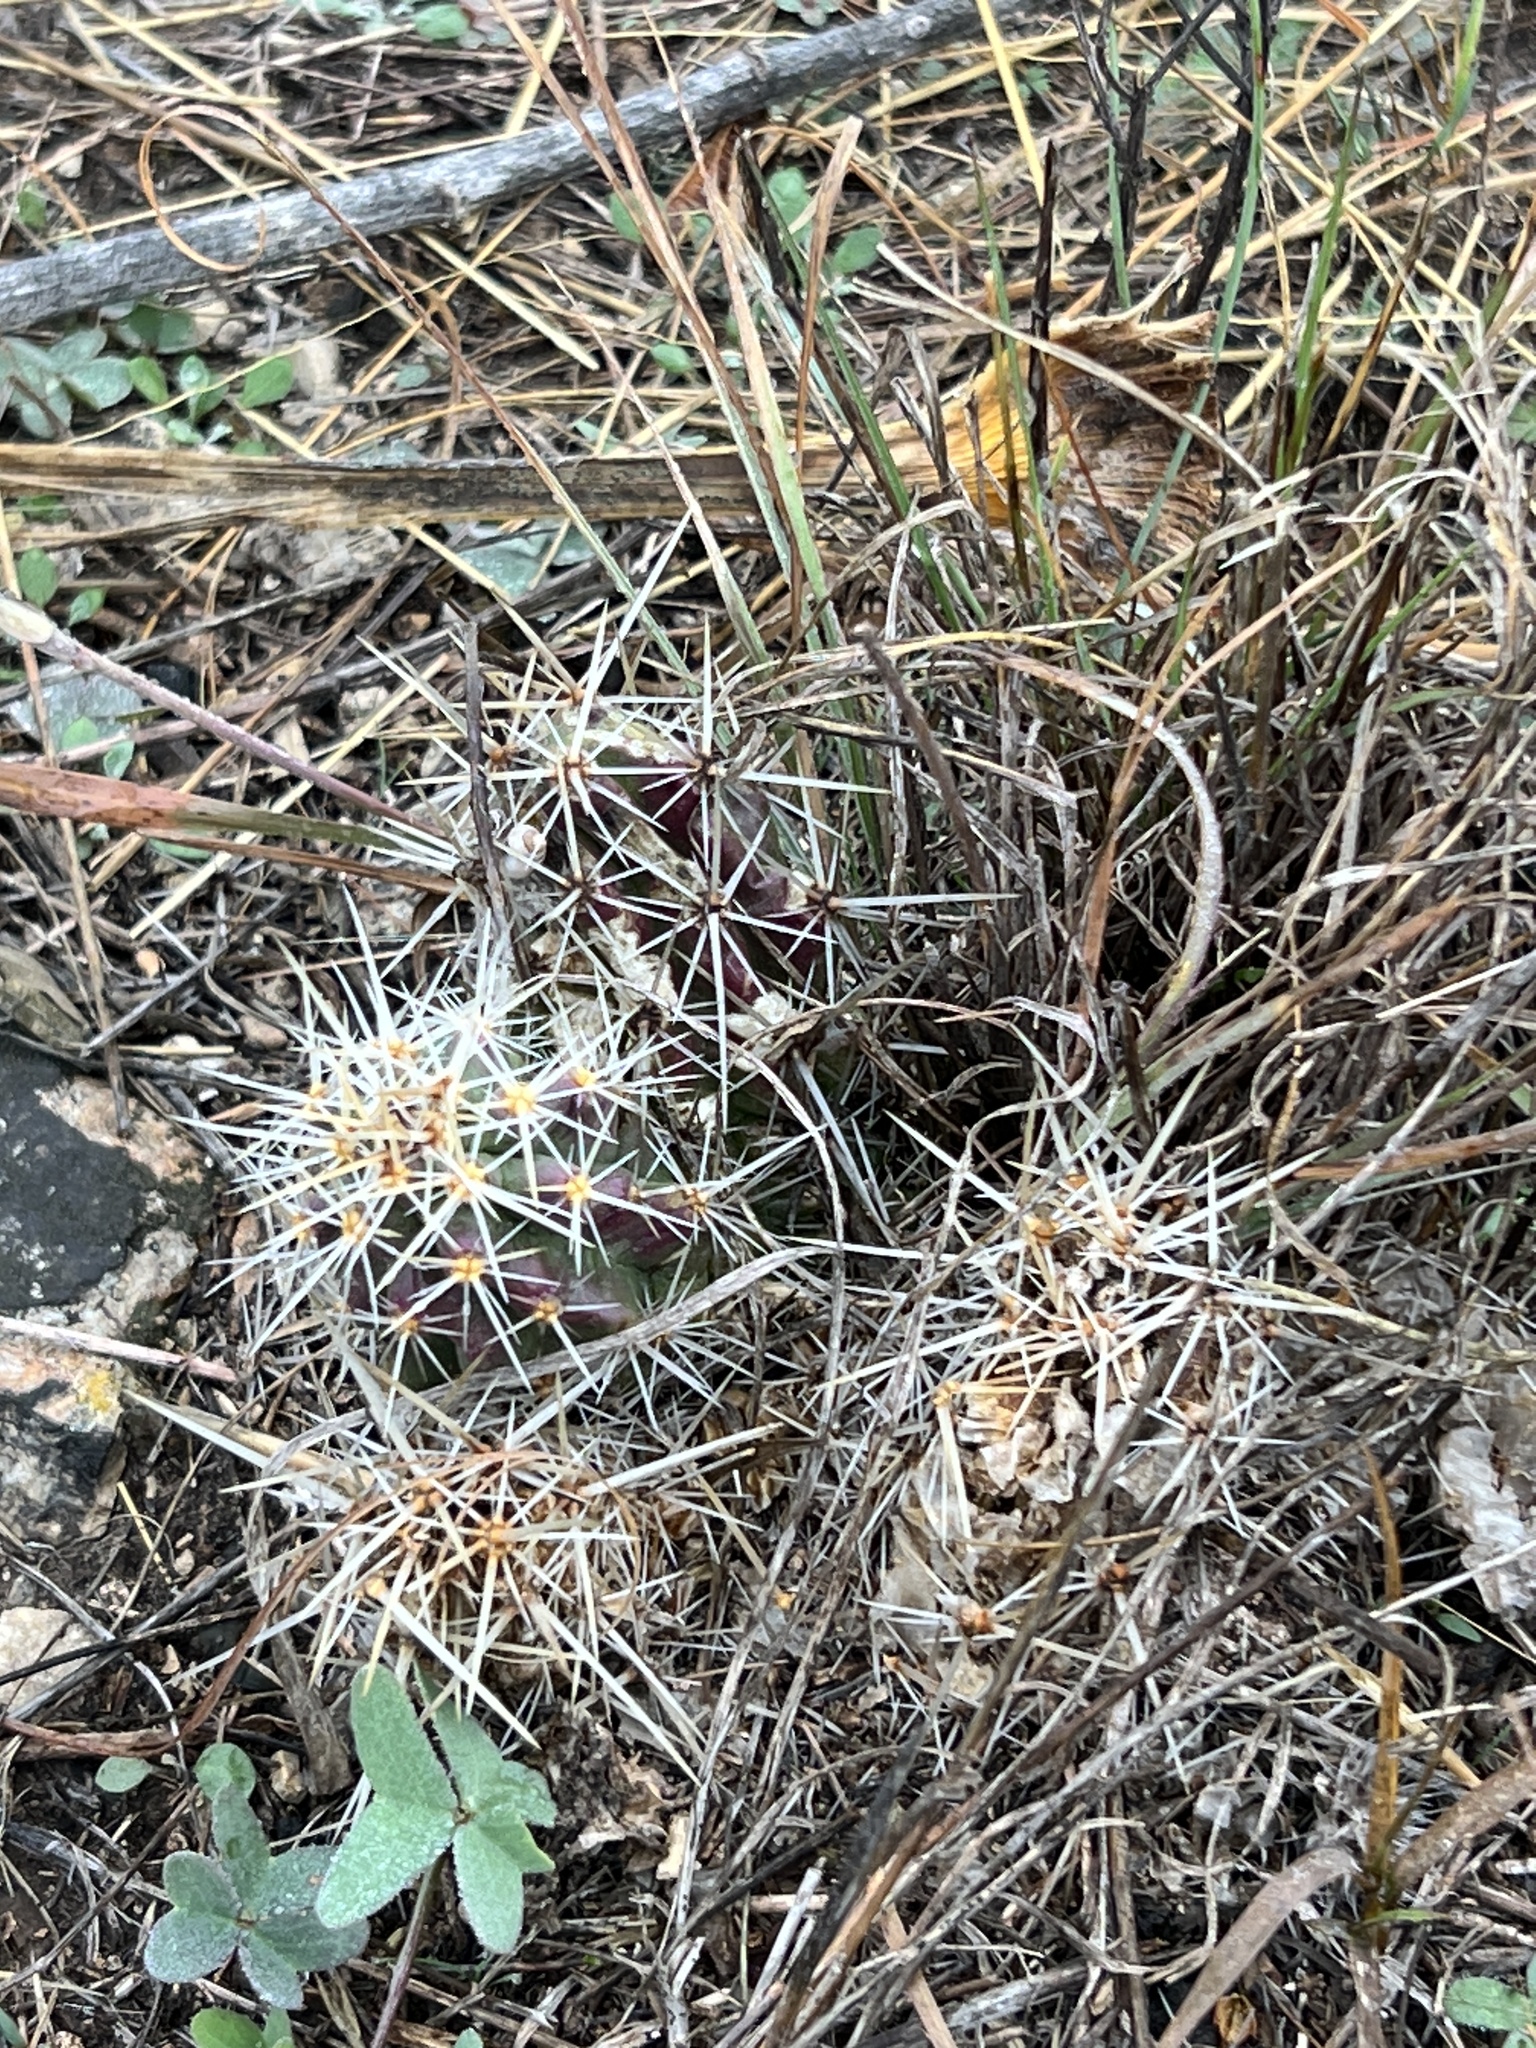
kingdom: Plantae
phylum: Tracheophyta
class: Magnoliopsida
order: Caryophyllales
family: Cactaceae
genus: Echinocereus
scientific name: Echinocereus enneacanthus
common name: Pitaya
